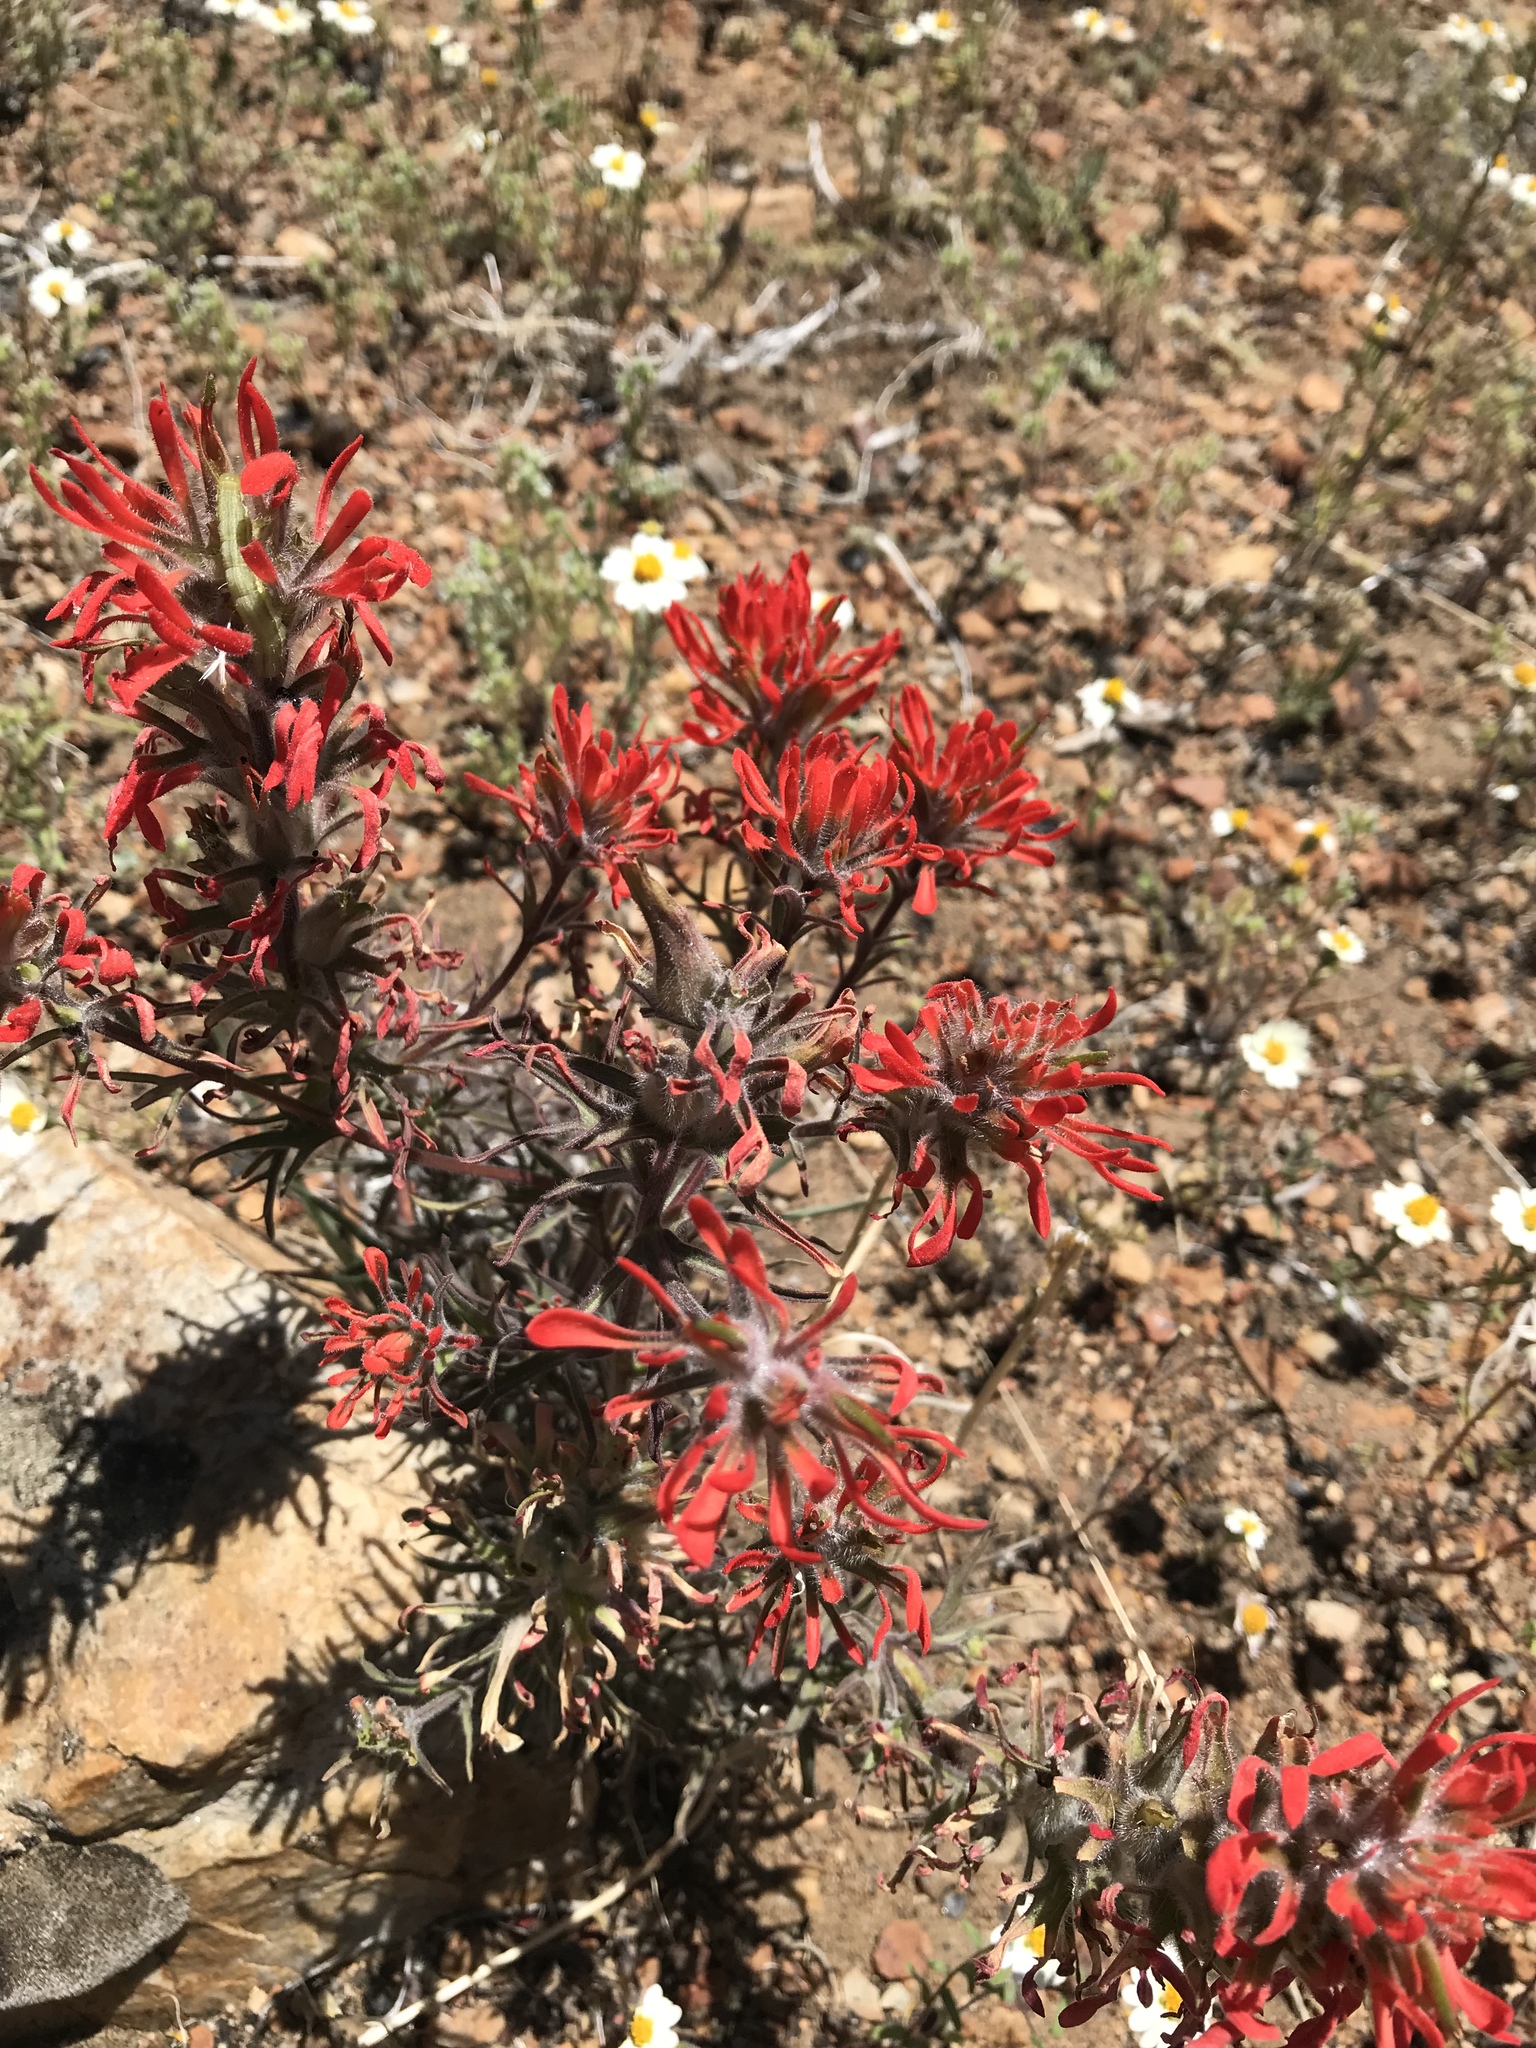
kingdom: Plantae
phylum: Tracheophyta
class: Magnoliopsida
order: Lamiales
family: Orobanchaceae
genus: Castilleja
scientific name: Castilleja chromosa
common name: Desert paintbrush
